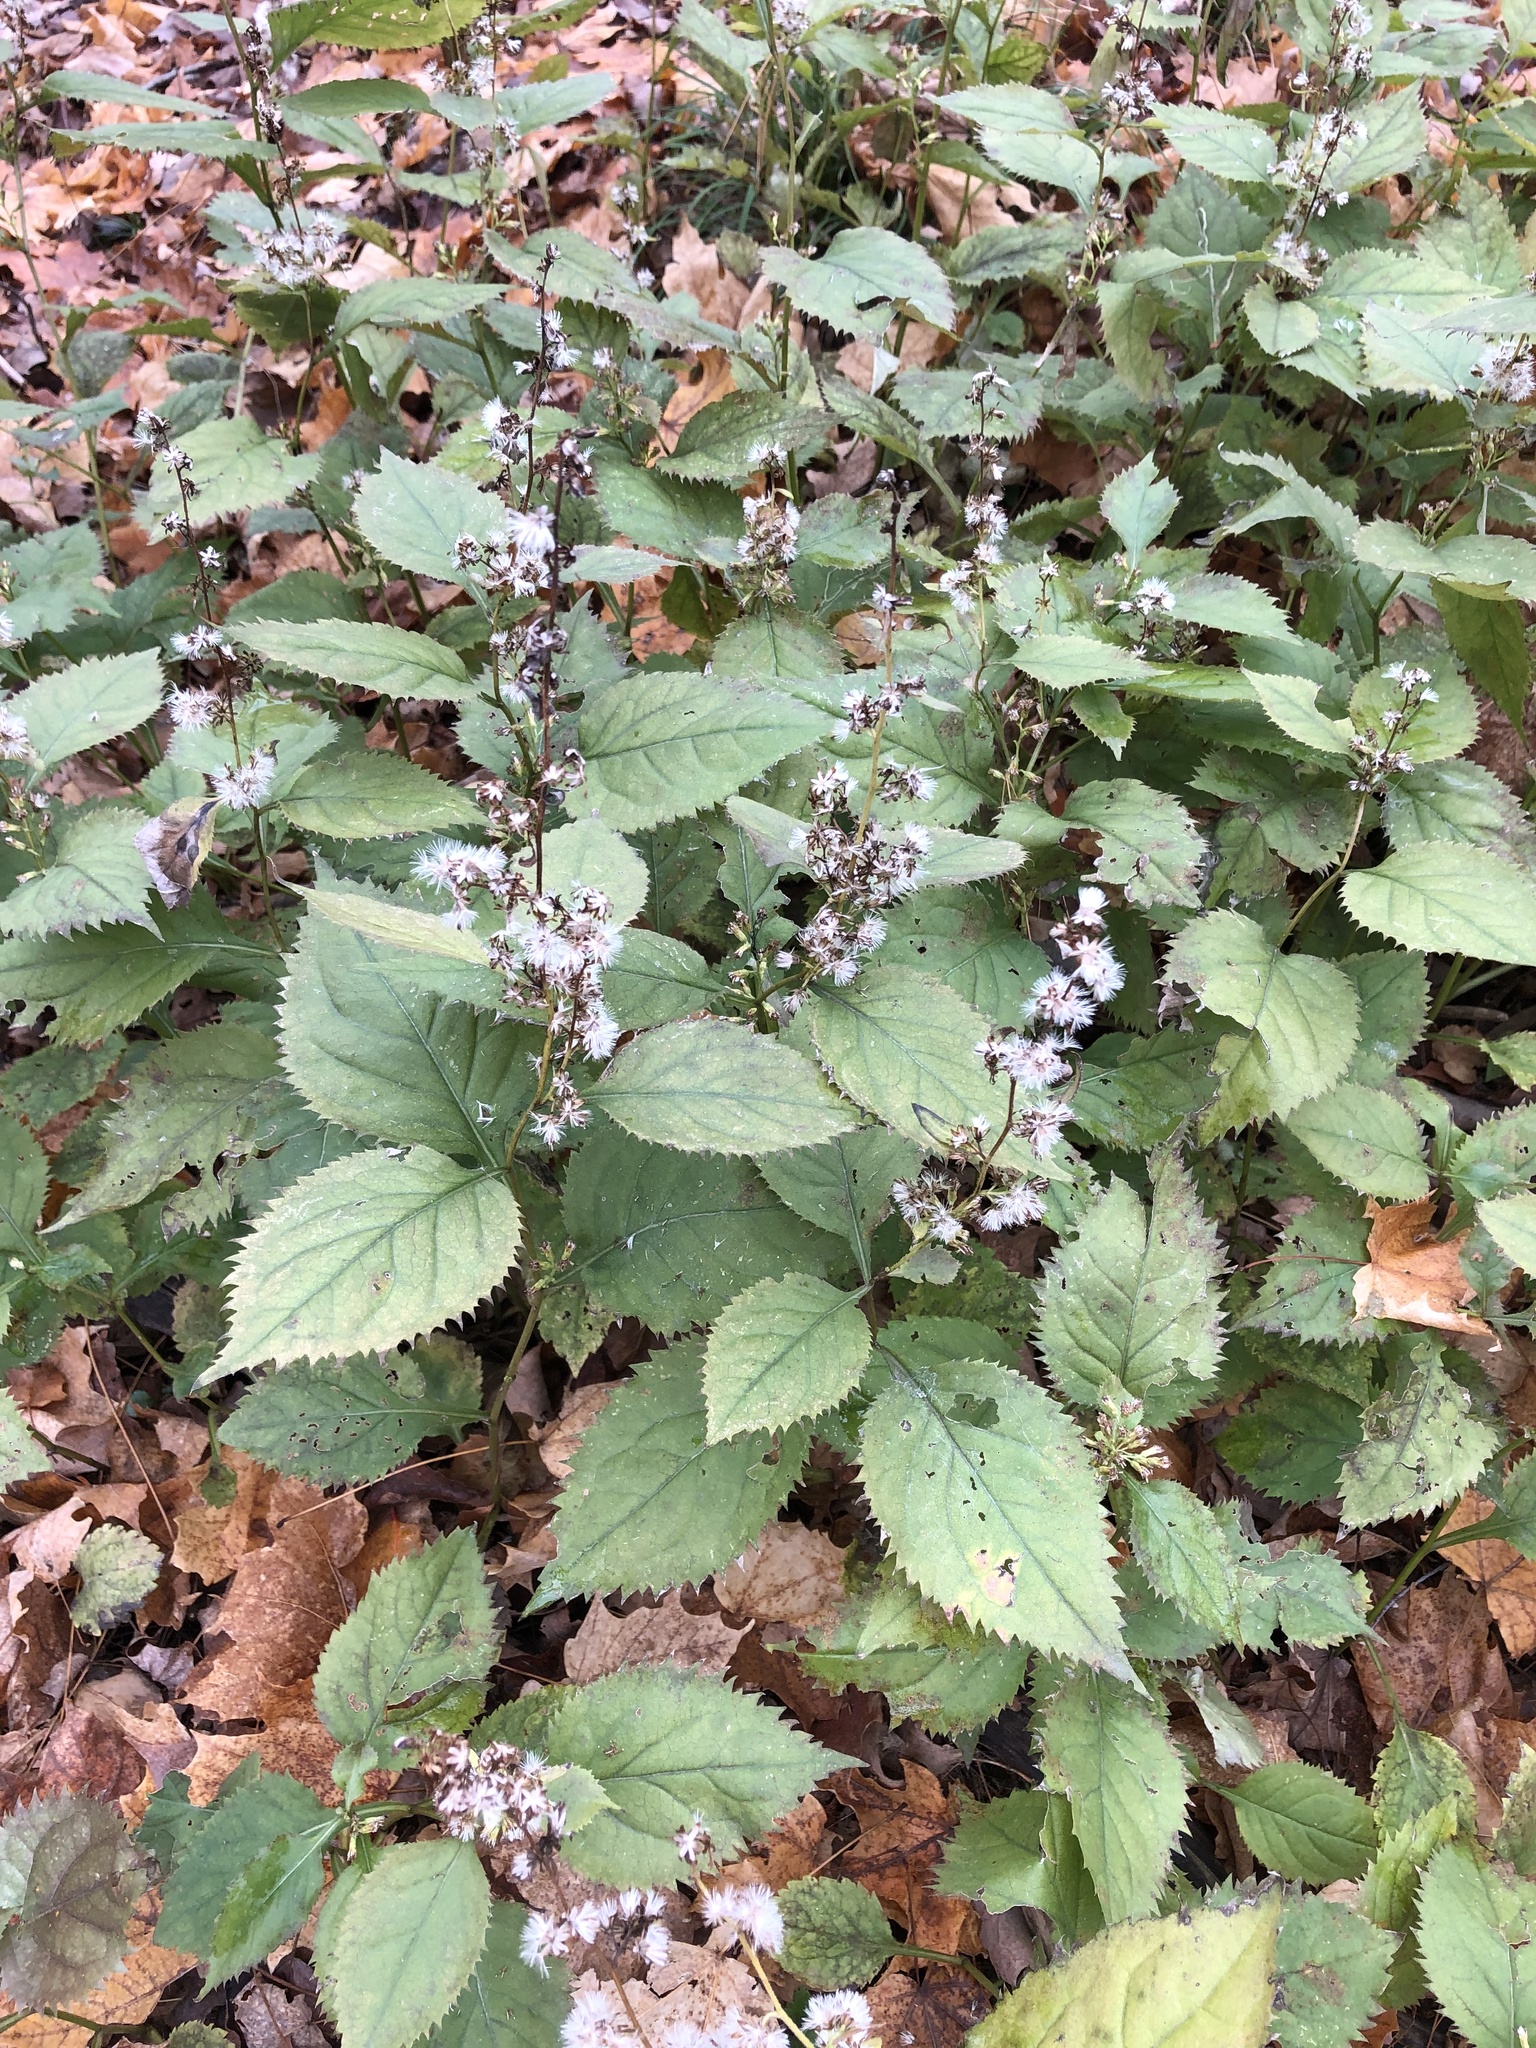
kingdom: Plantae
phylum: Tracheophyta
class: Magnoliopsida
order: Asterales
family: Asteraceae
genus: Solidago
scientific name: Solidago flexicaulis
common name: Zig-zag goldenrod
